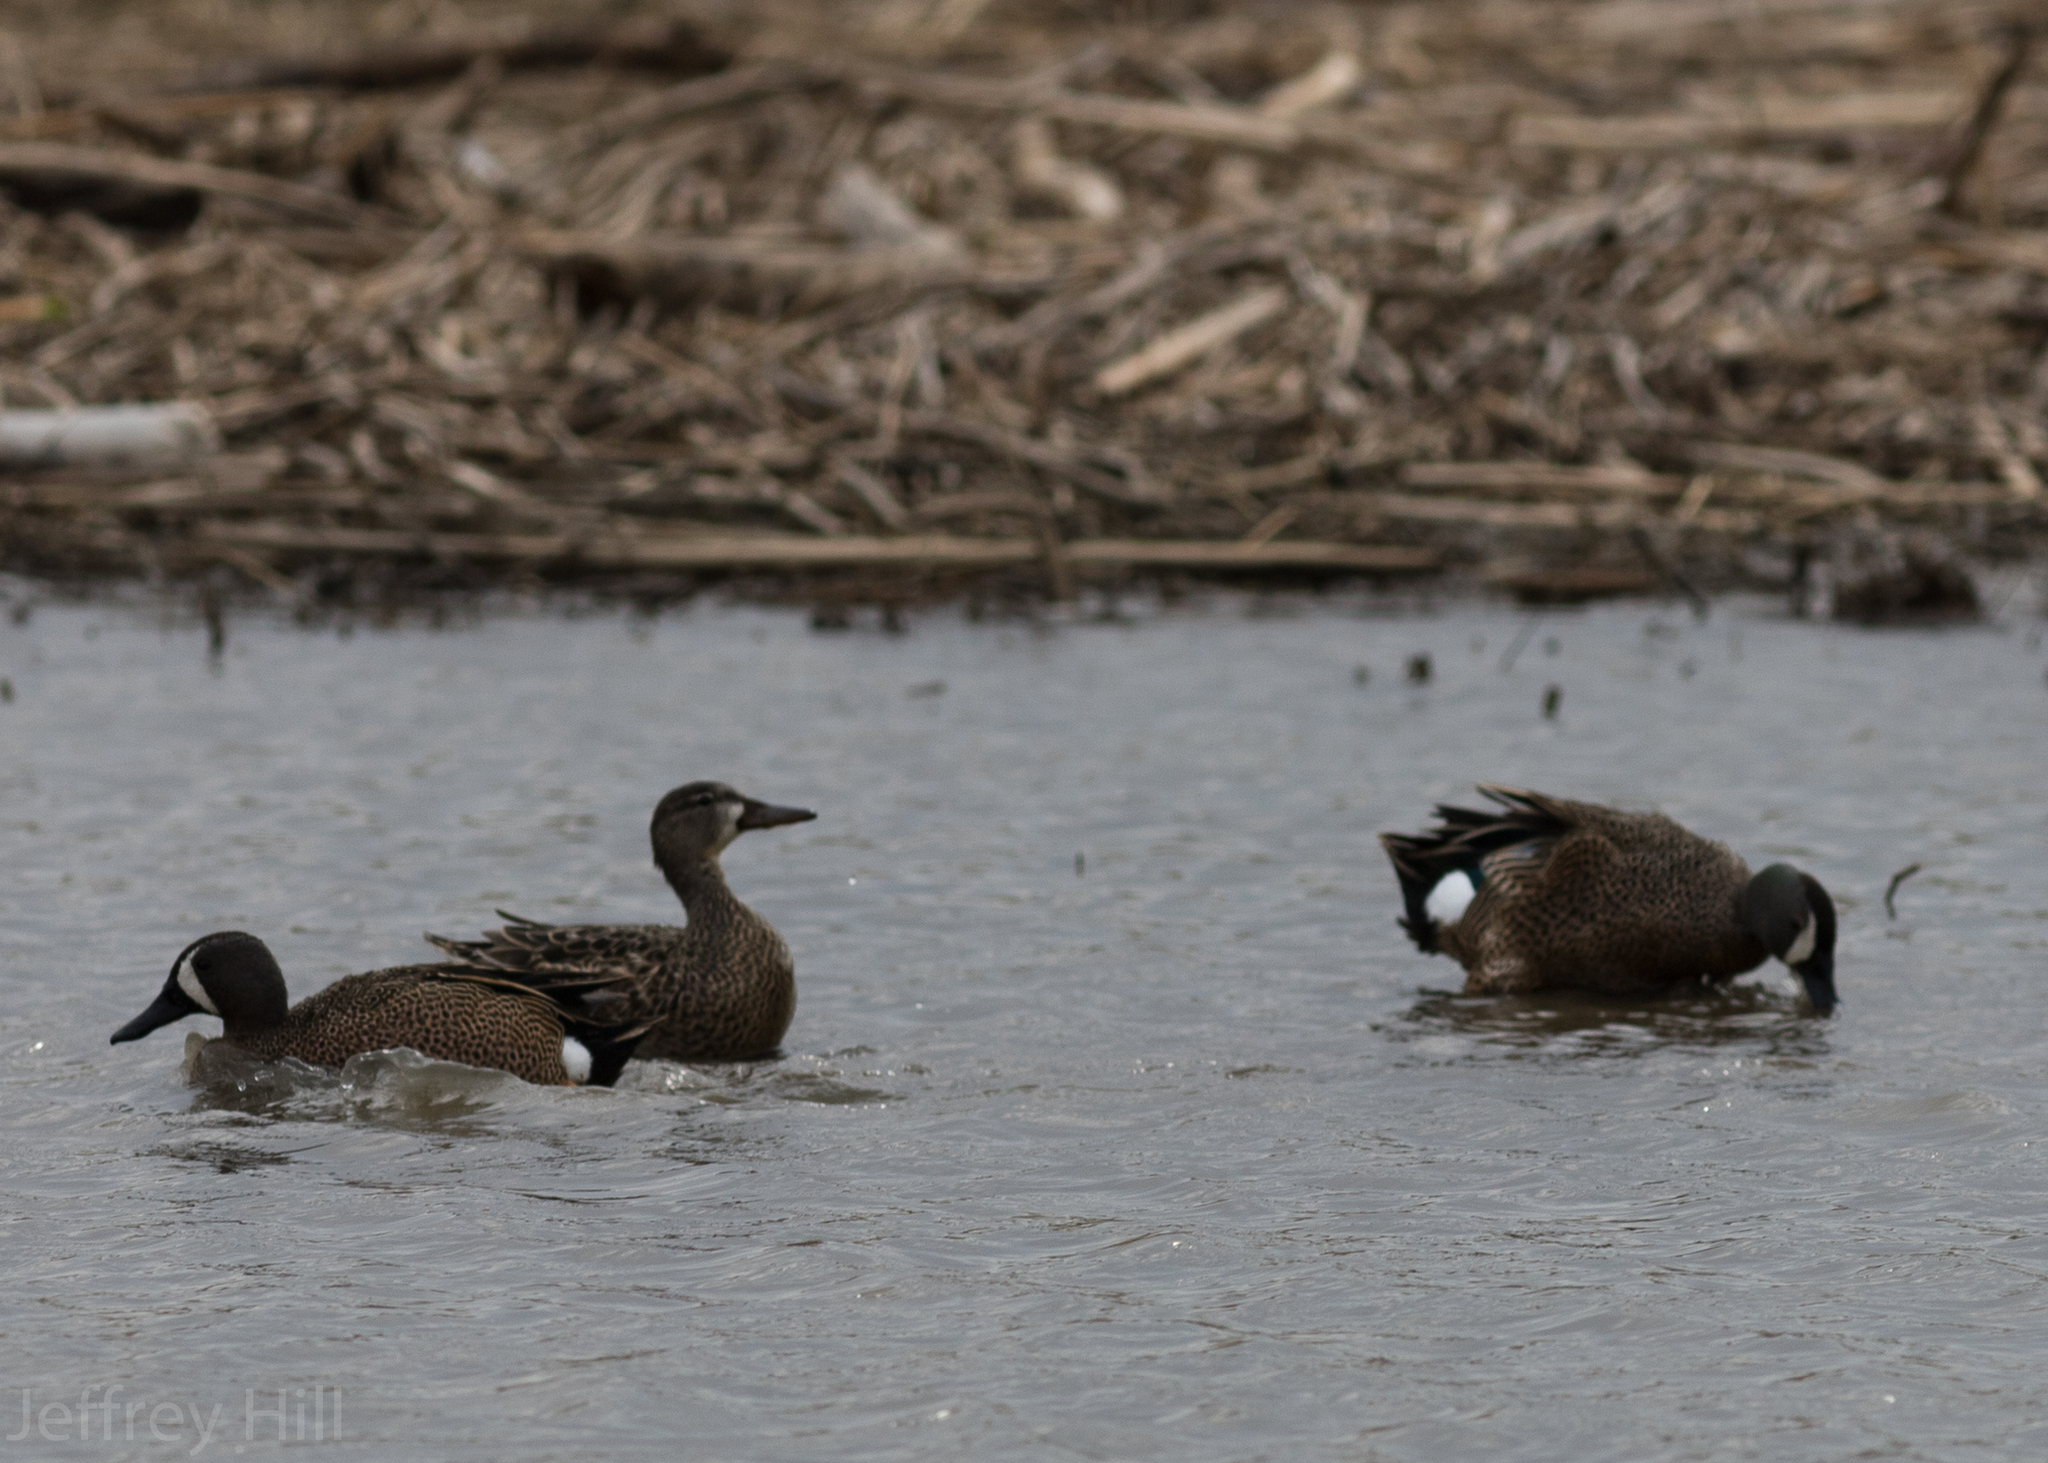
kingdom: Animalia
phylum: Chordata
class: Aves
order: Anseriformes
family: Anatidae
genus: Spatula
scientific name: Spatula discors
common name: Blue-winged teal
